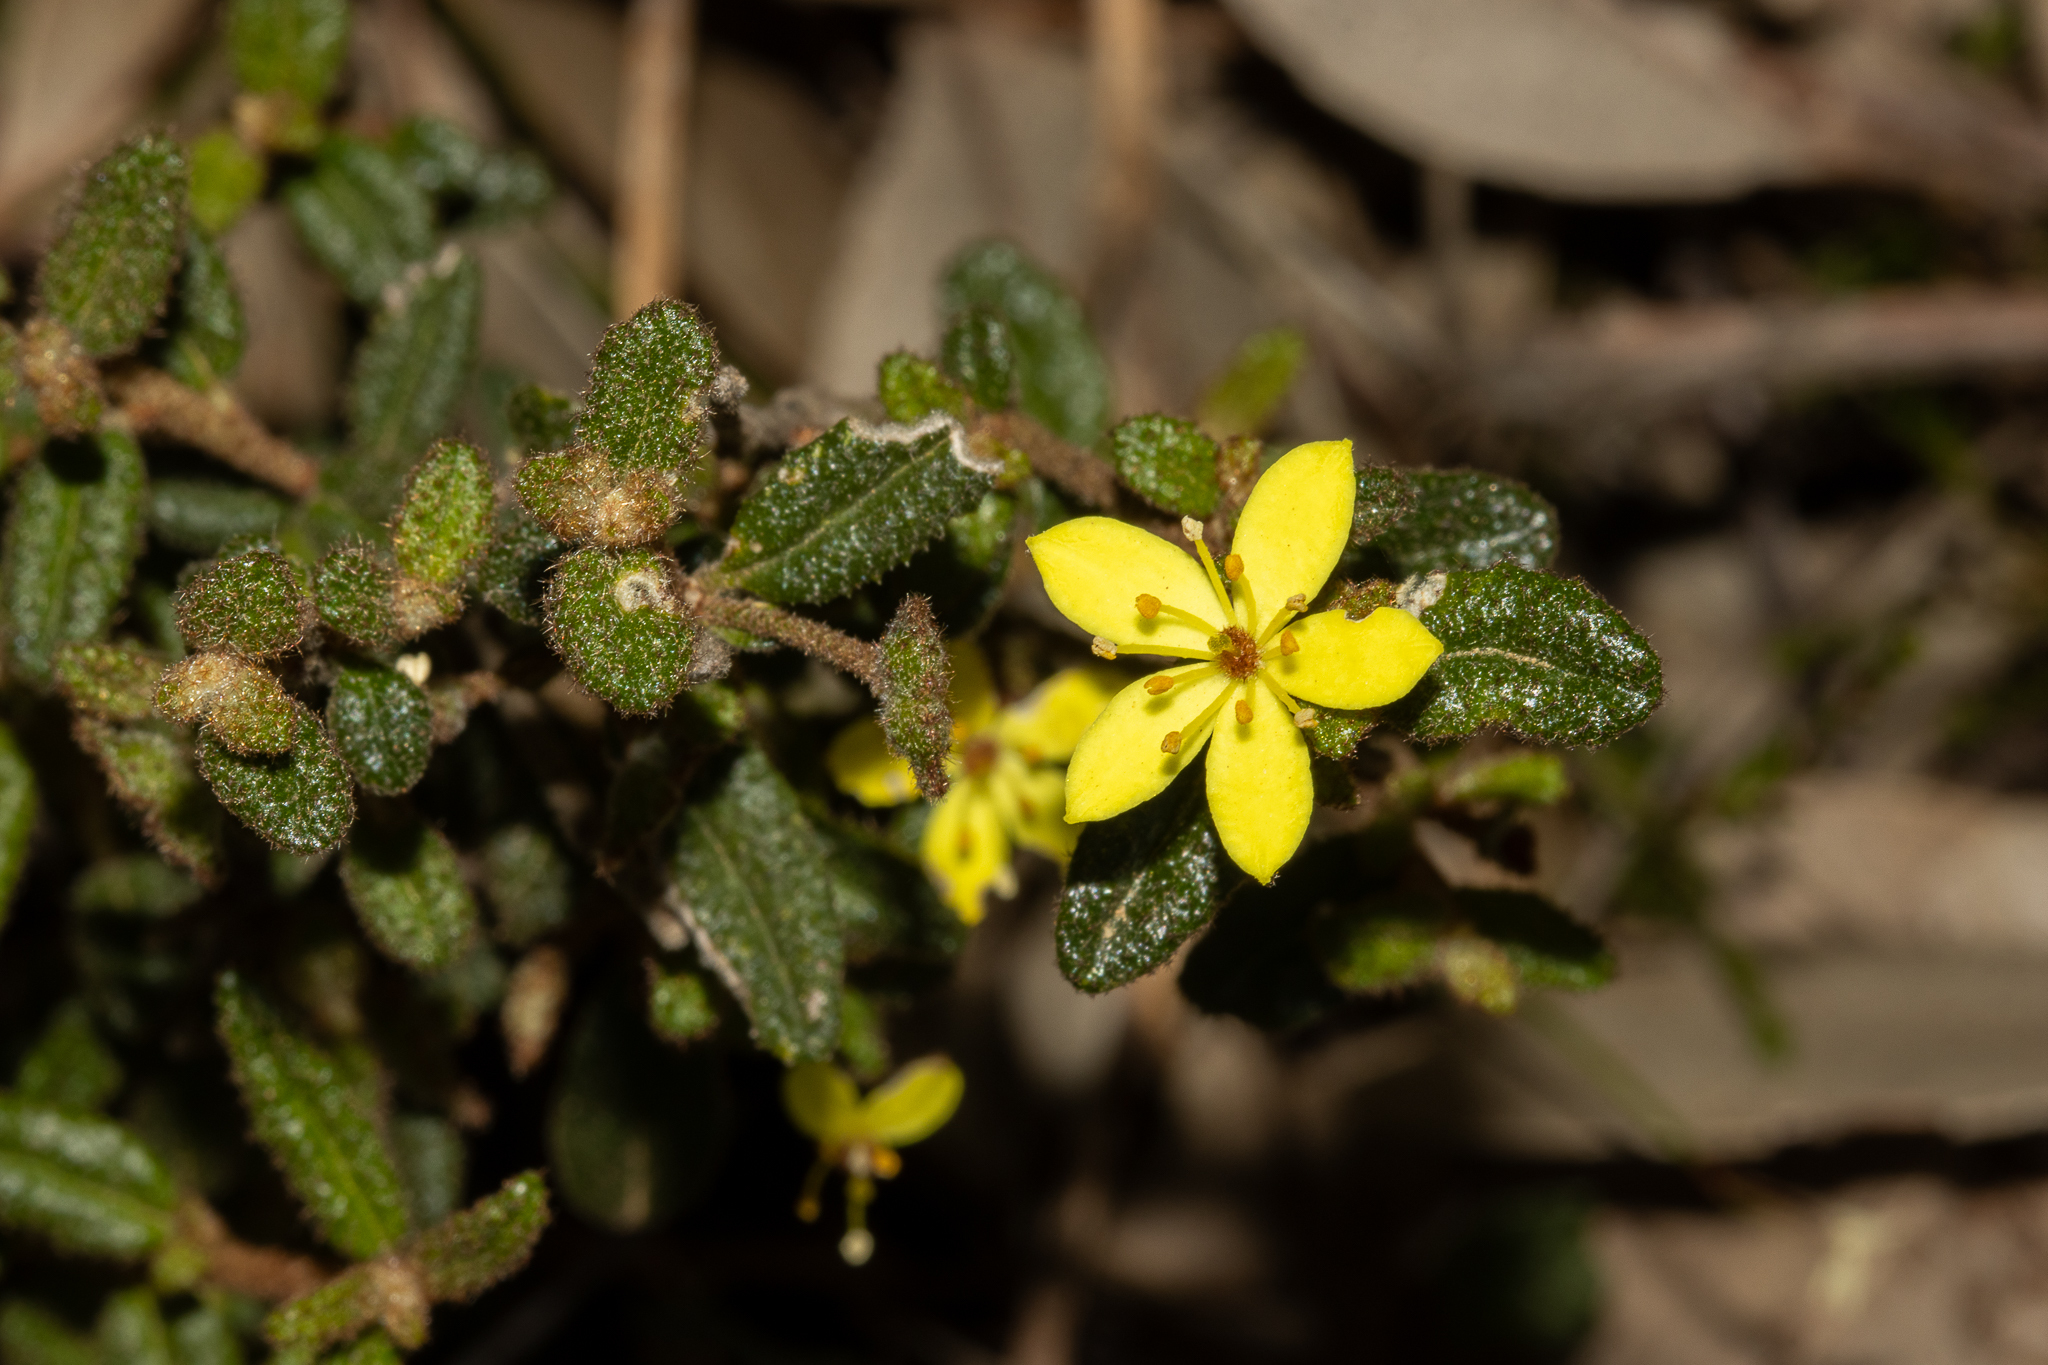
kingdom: Plantae
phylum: Tracheophyta
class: Magnoliopsida
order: Sapindales
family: Rutaceae
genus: Asterolasia
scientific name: Asterolasia muricata
